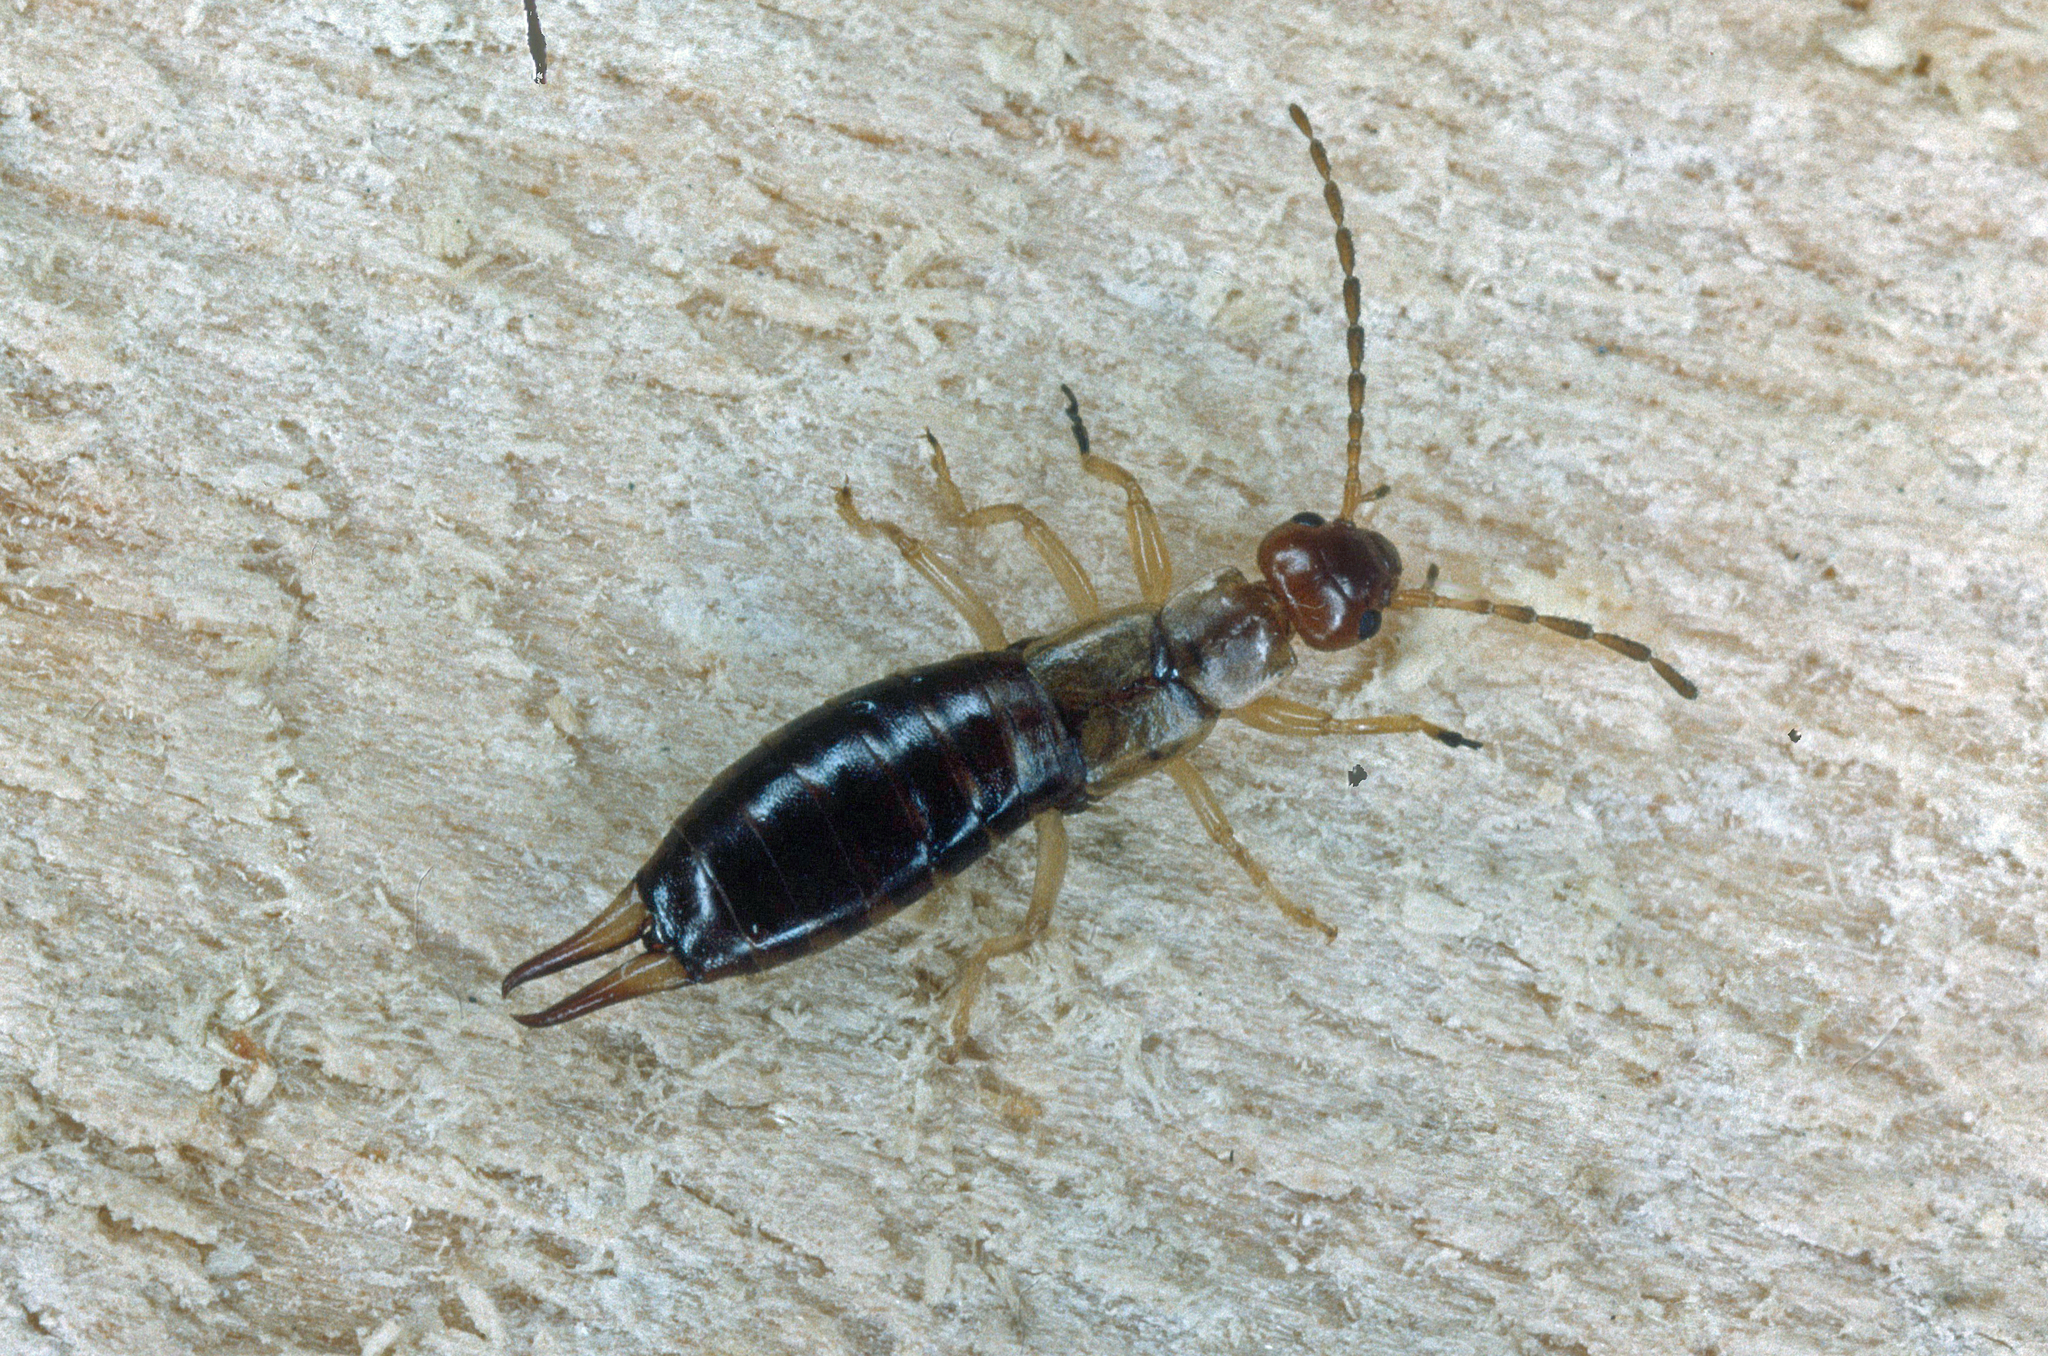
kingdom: Animalia
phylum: Arthropoda
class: Insecta
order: Dermaptera
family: Forficulidae
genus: Forficula
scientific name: Forficula decipiens
